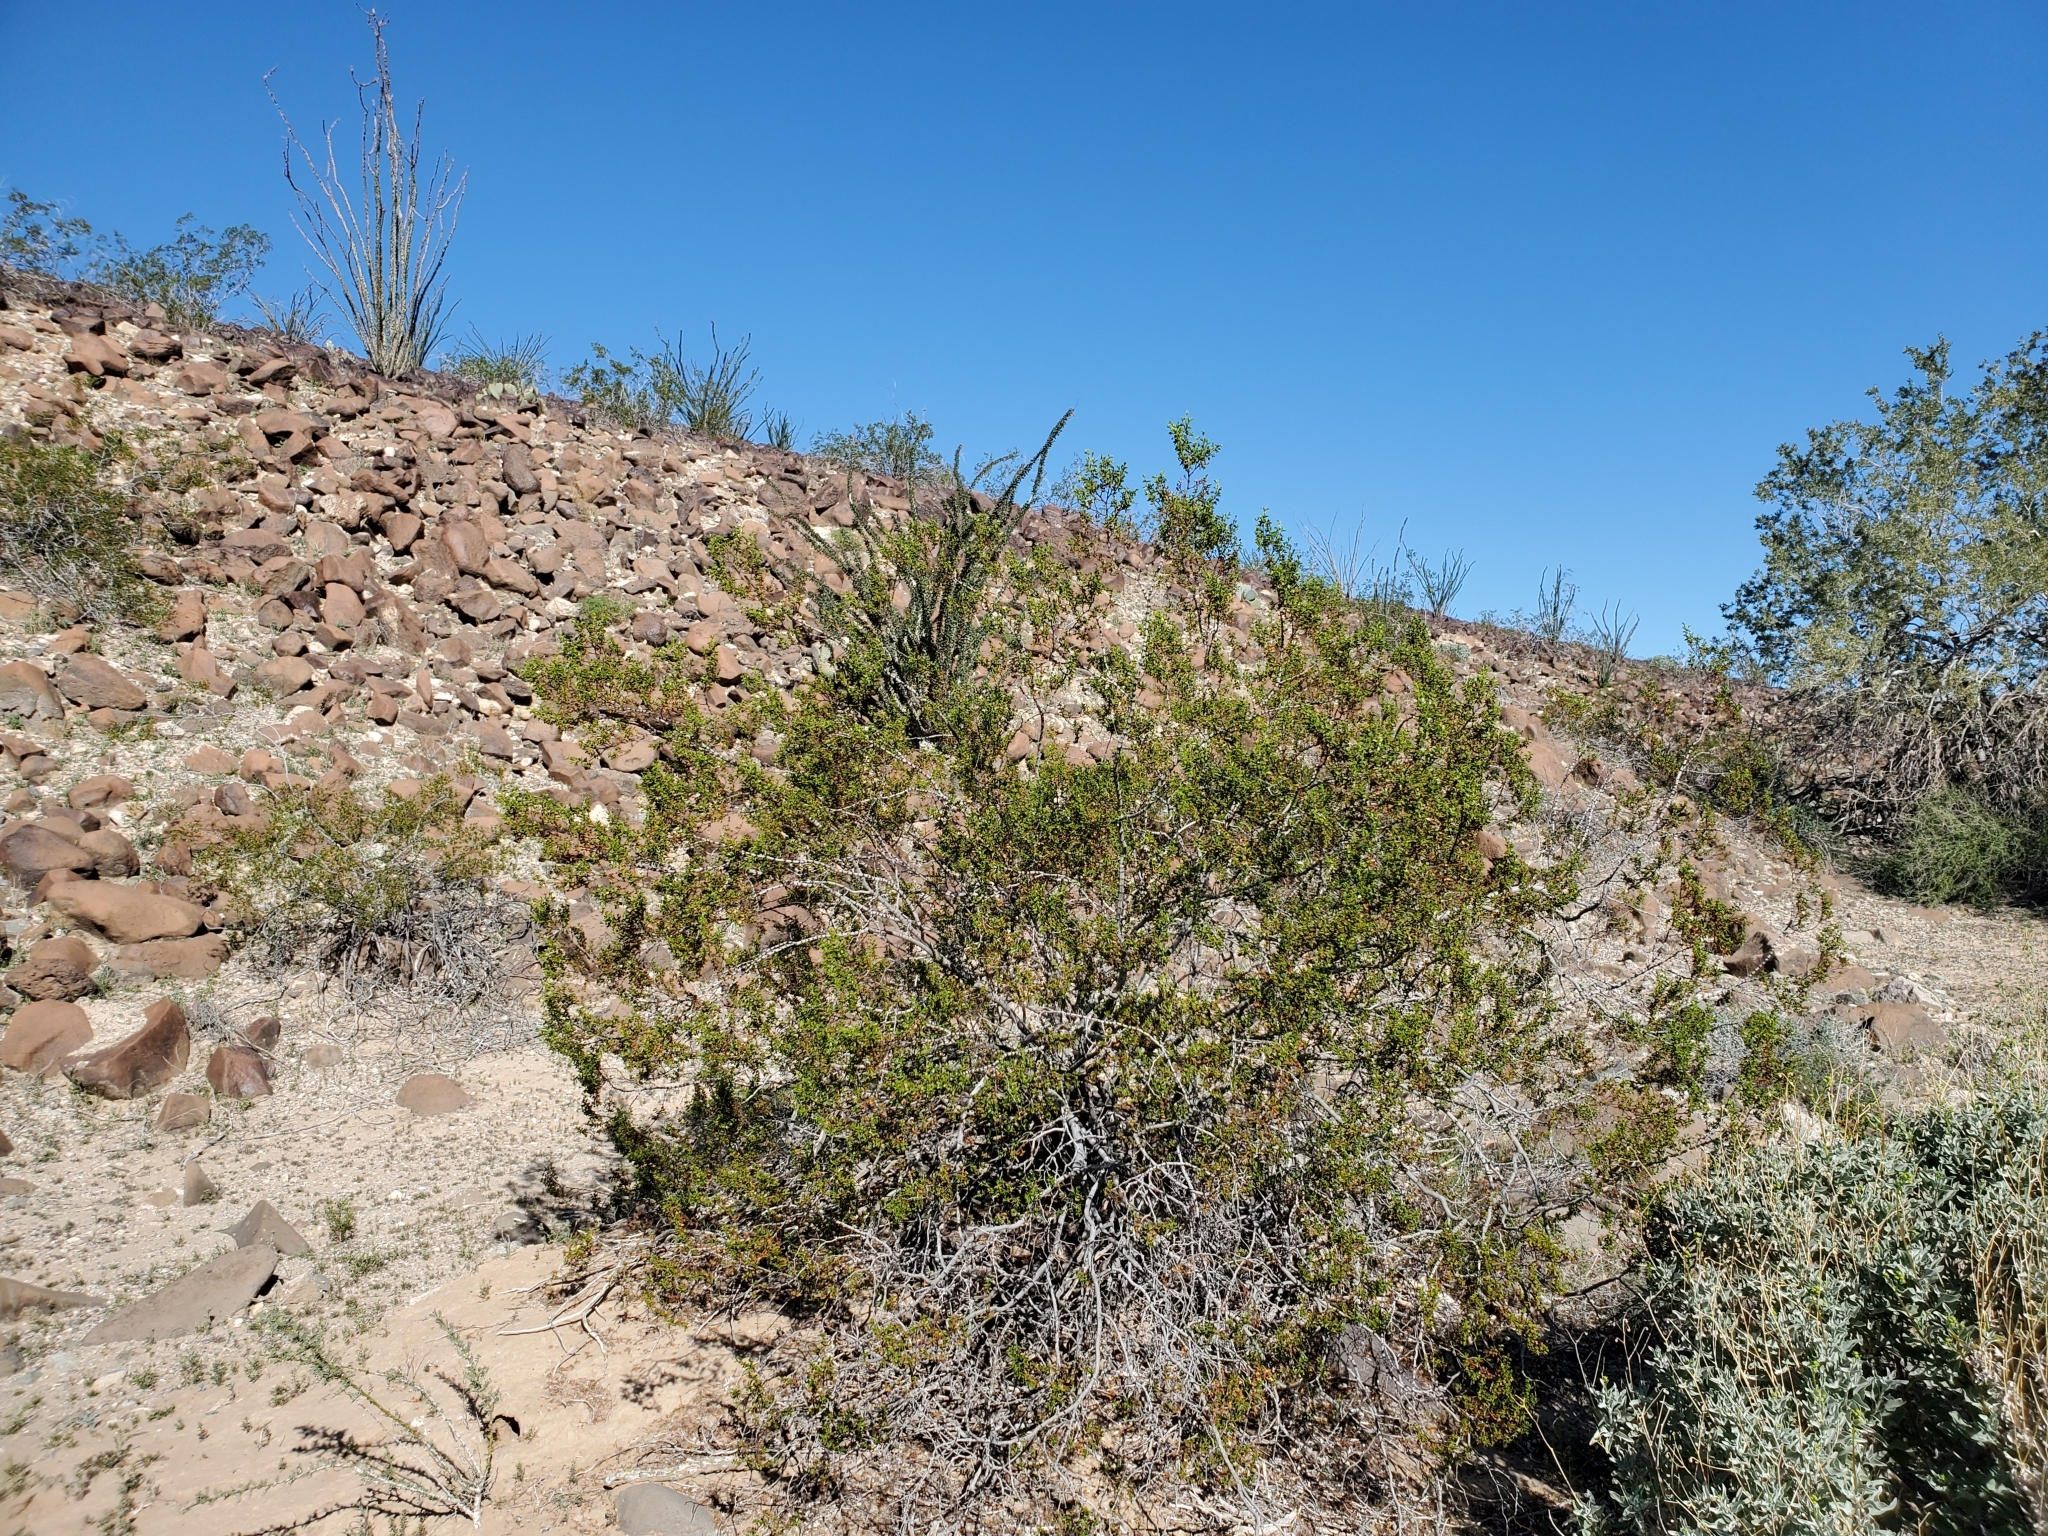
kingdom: Plantae
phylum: Tracheophyta
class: Magnoliopsida
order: Zygophyllales
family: Zygophyllaceae
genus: Larrea
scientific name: Larrea tridentata
